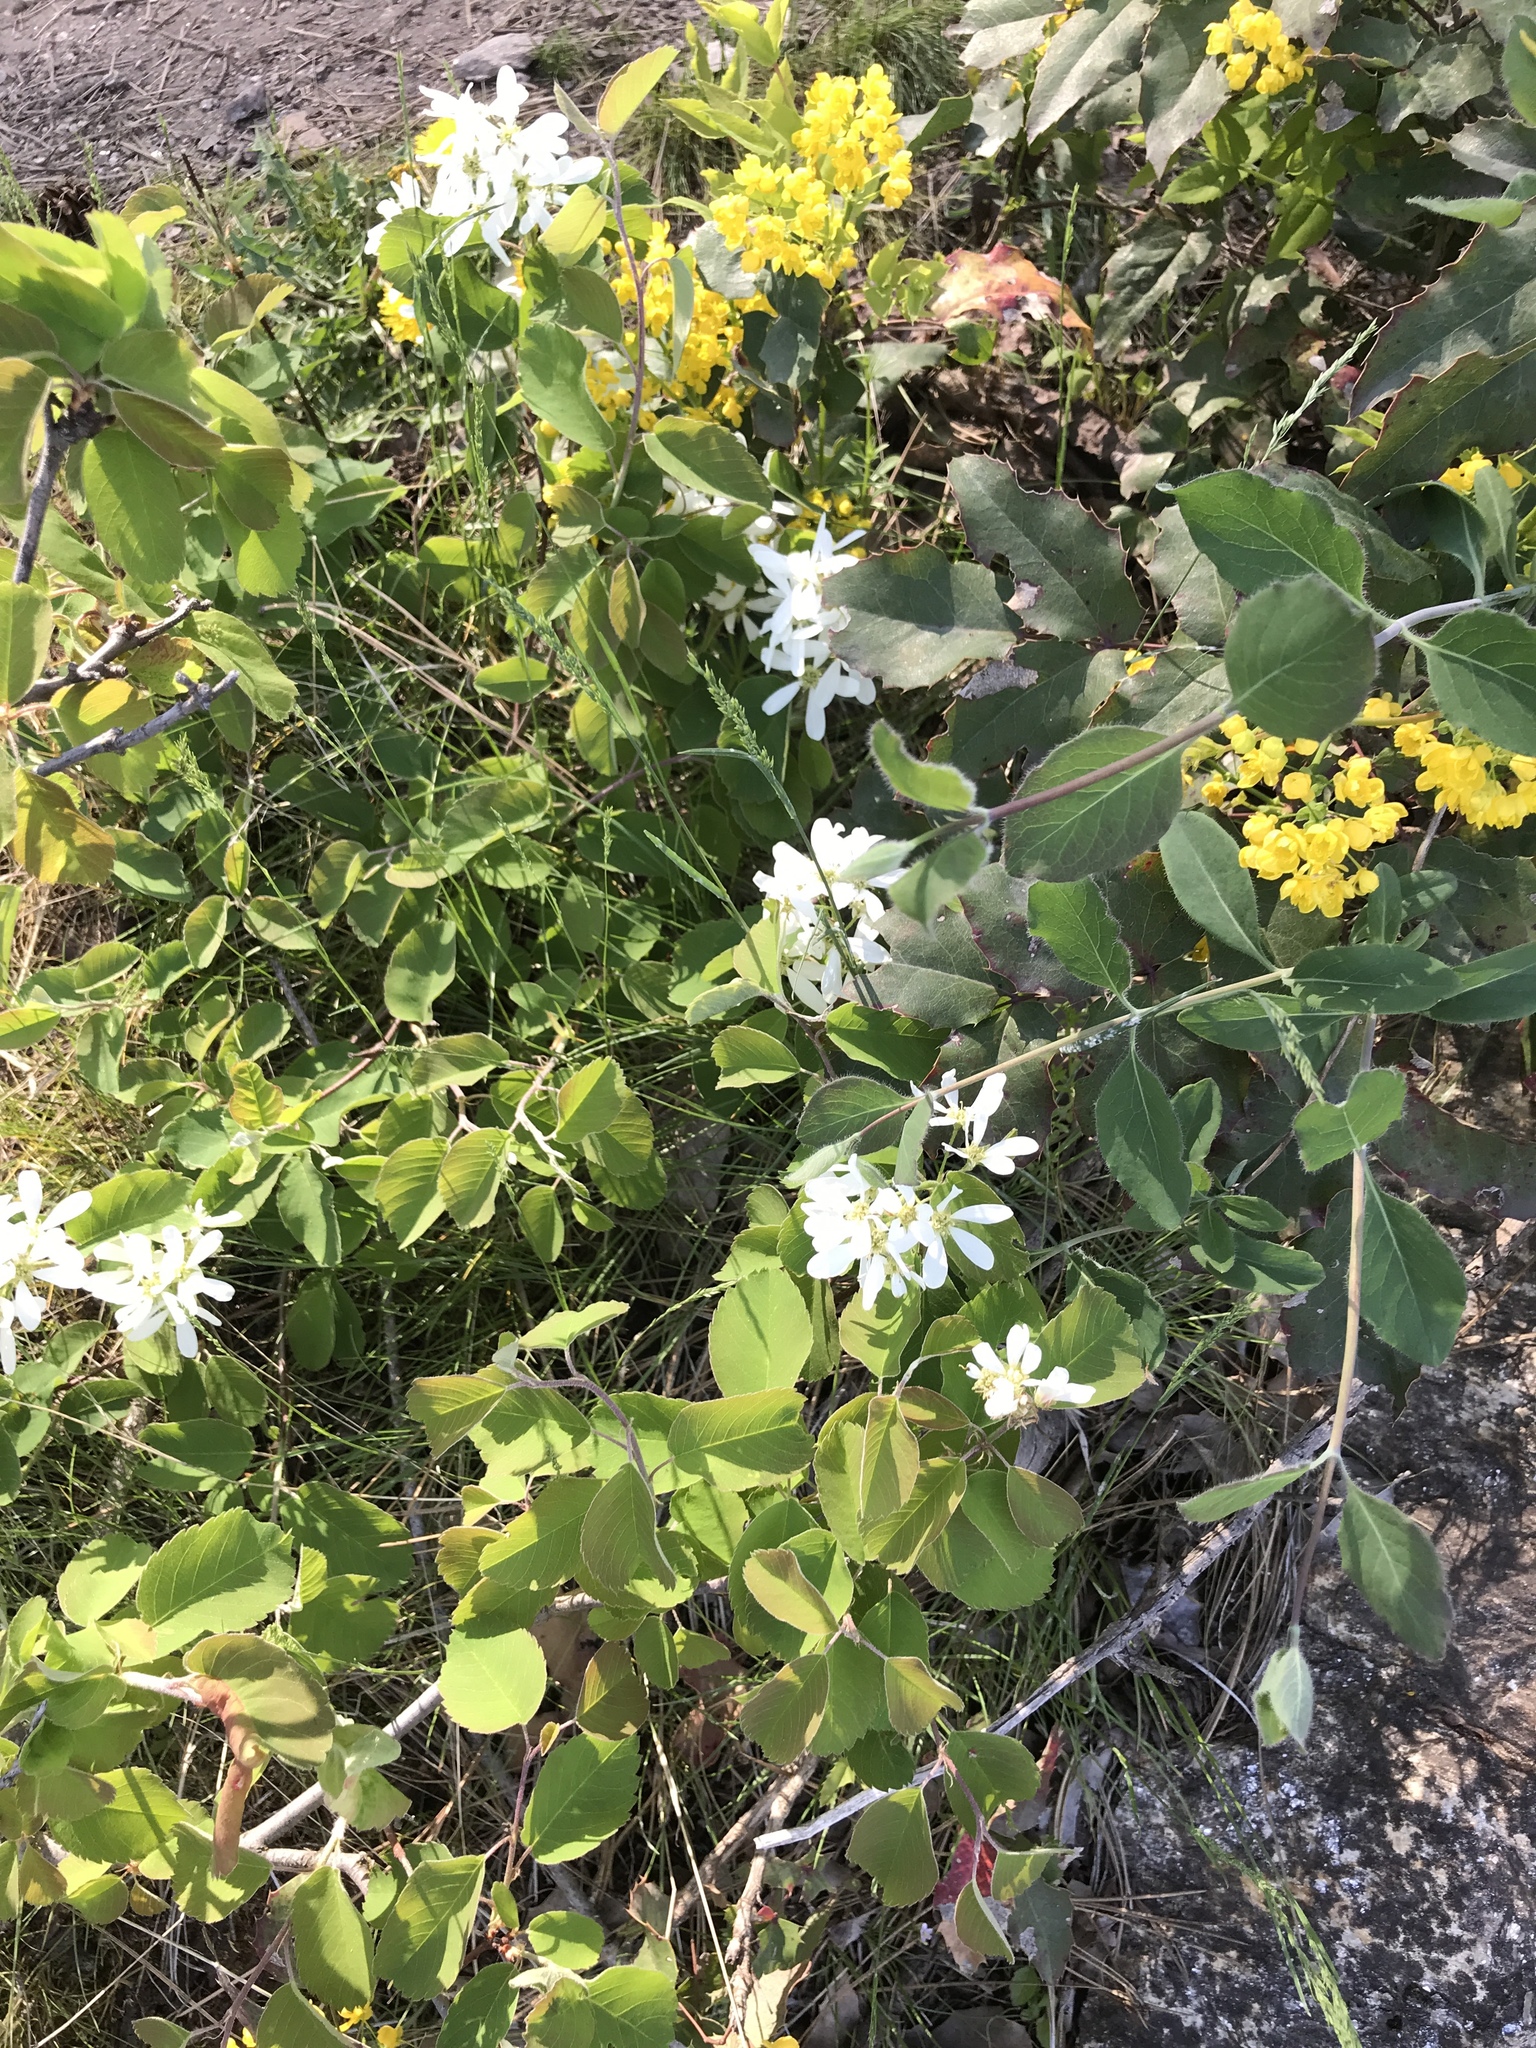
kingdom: Plantae
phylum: Tracheophyta
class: Magnoliopsida
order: Rosales
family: Rosaceae
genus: Amelanchier
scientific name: Amelanchier alnifolia
